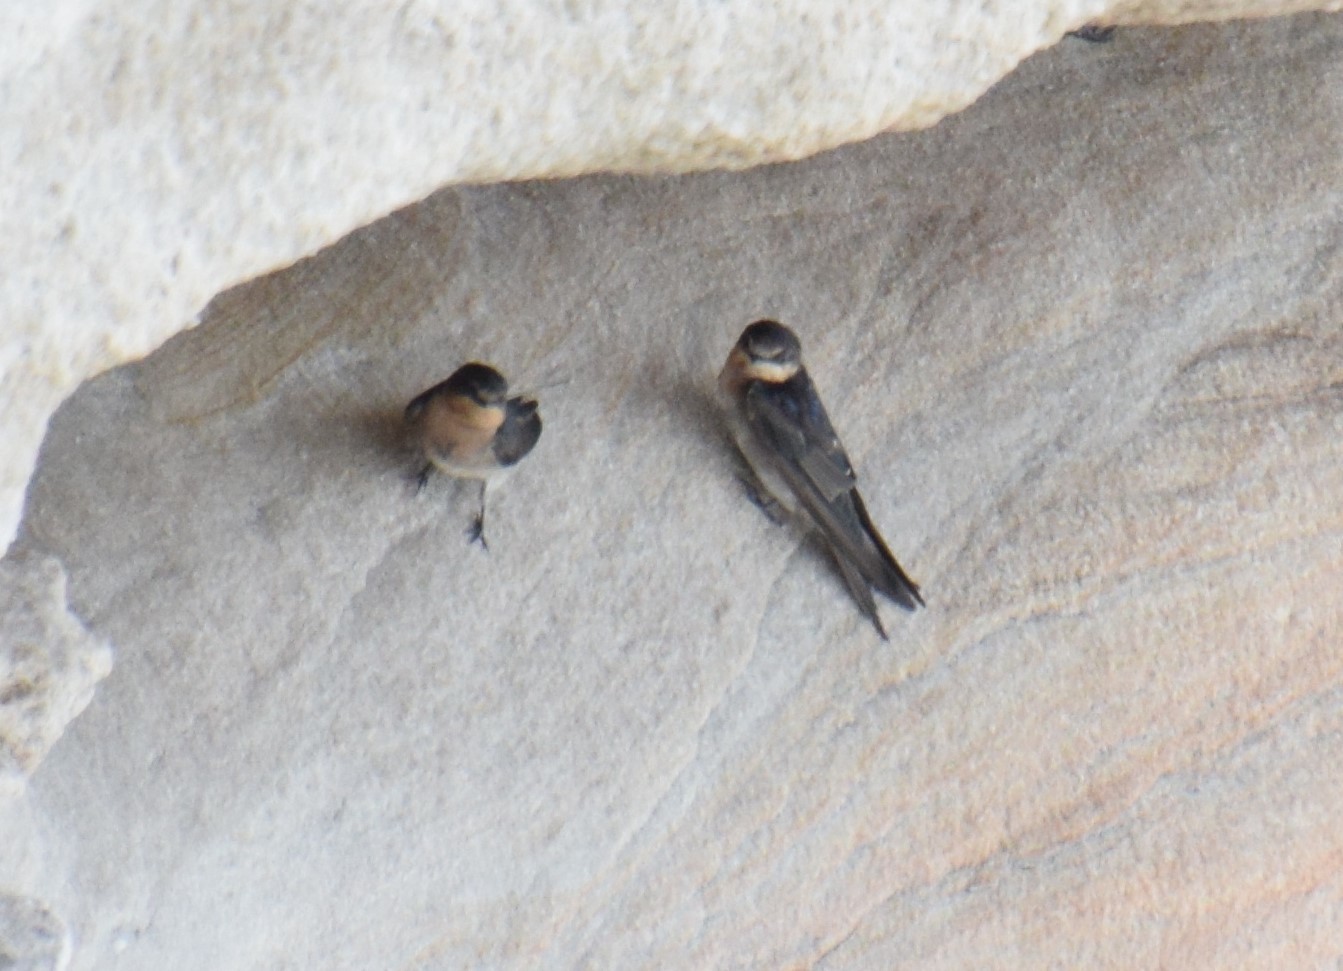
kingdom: Animalia
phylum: Chordata
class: Aves
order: Passeriformes
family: Hirundinidae
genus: Hirundo
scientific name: Hirundo neoxena
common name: Welcome swallow
